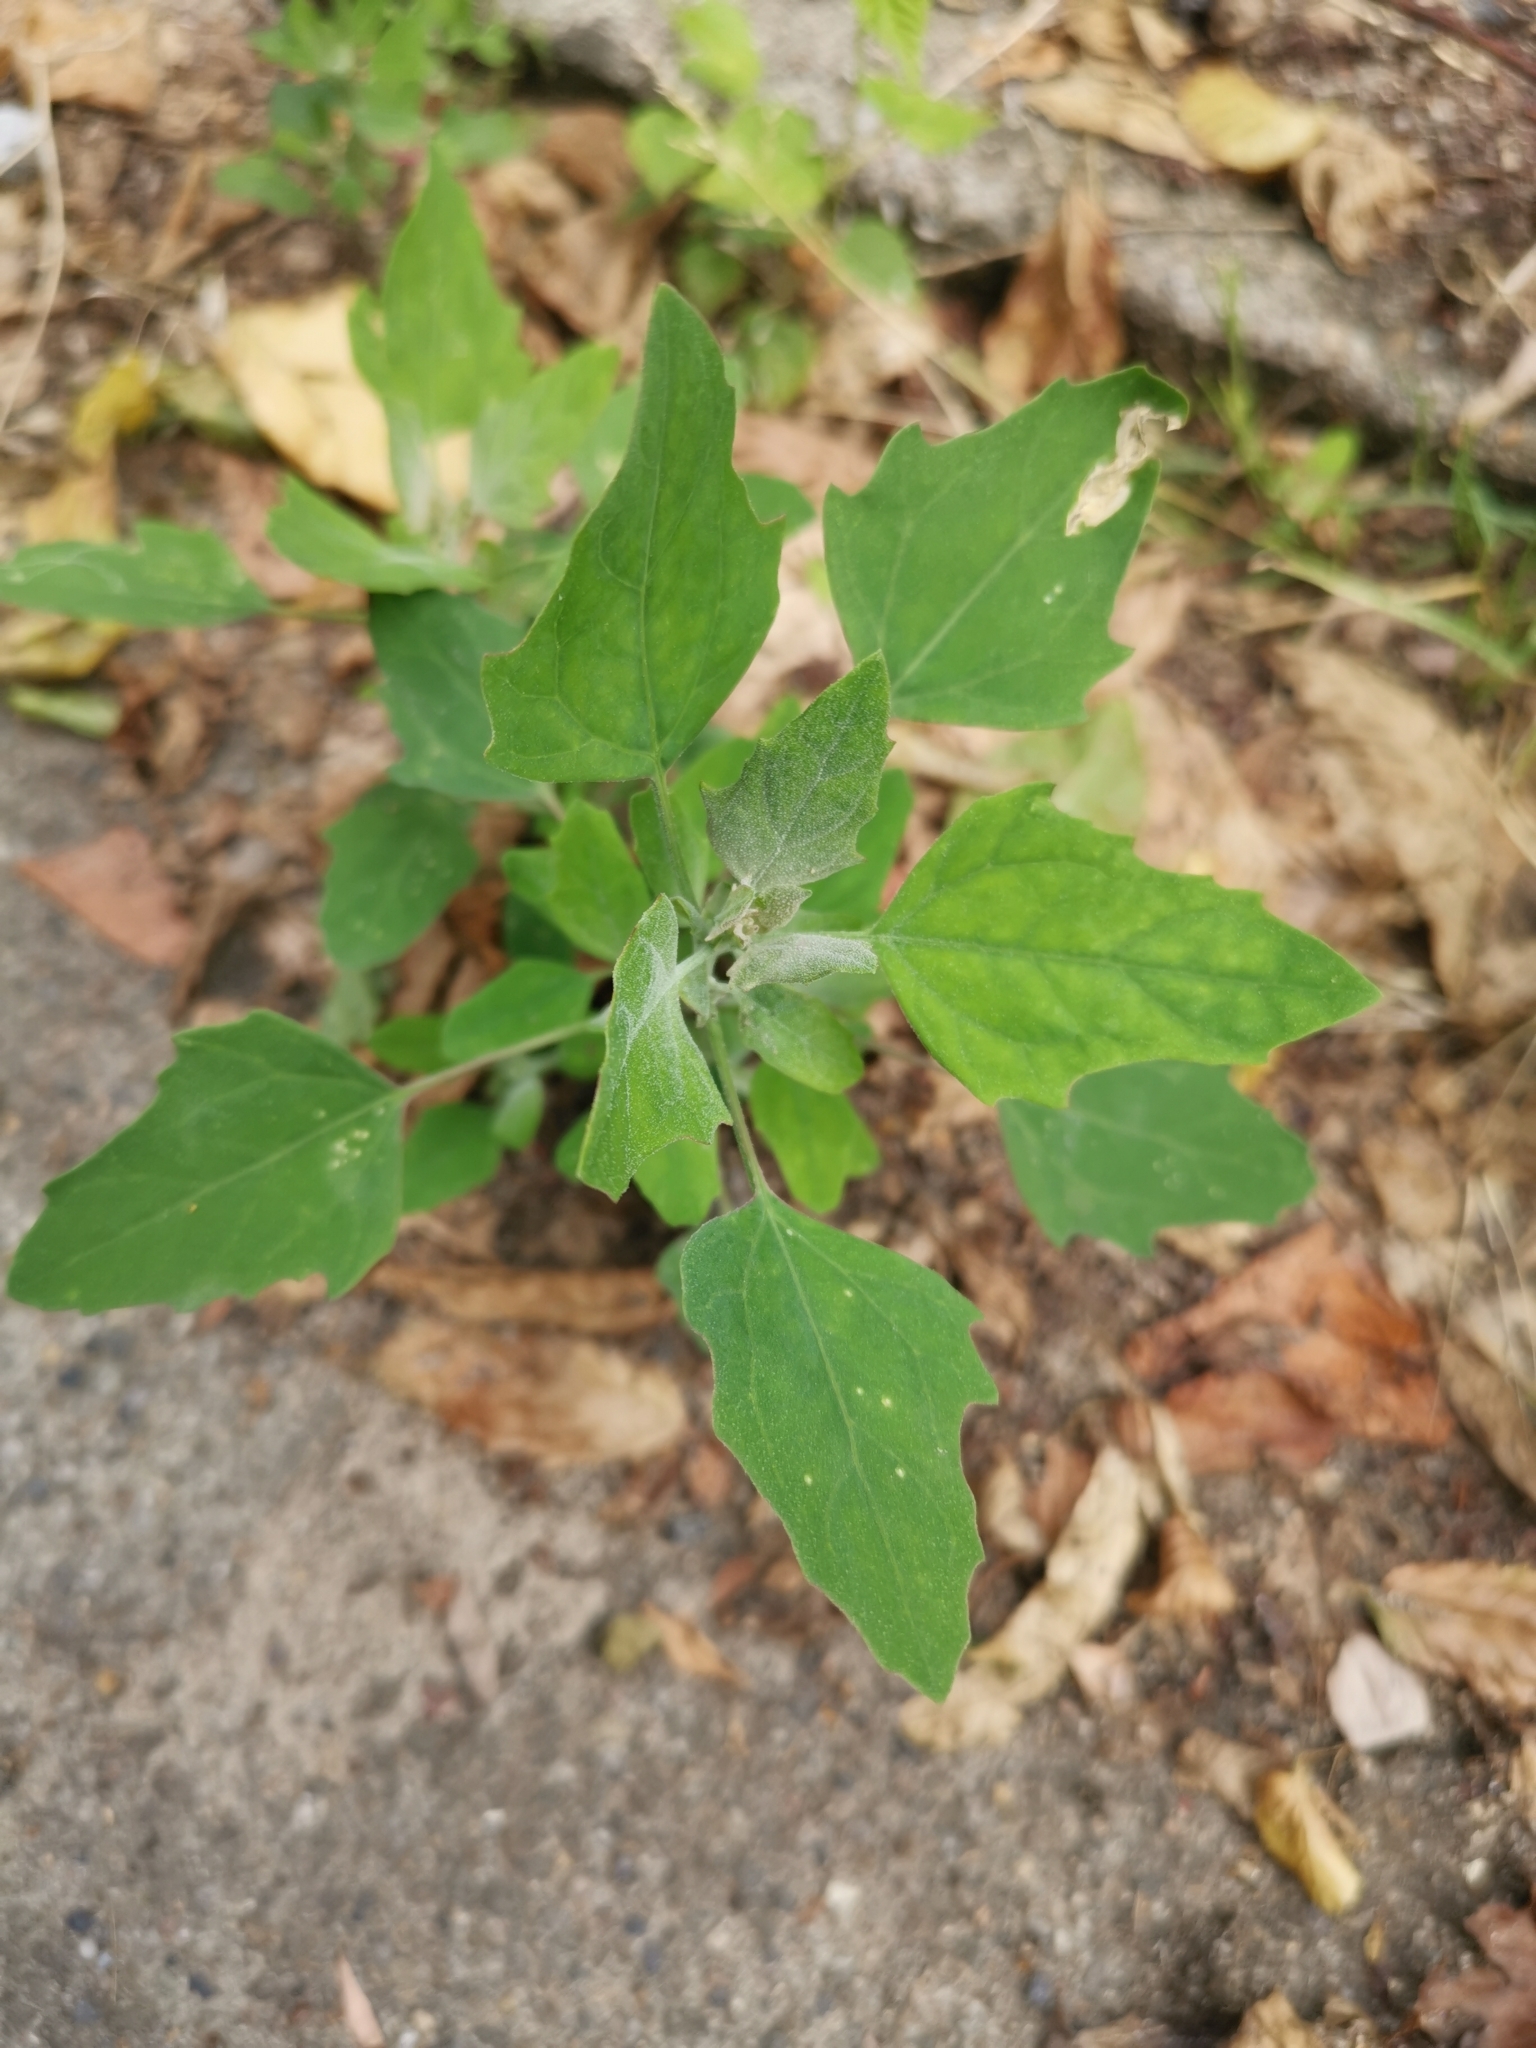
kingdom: Plantae
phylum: Tracheophyta
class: Magnoliopsida
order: Caryophyllales
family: Amaranthaceae
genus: Chenopodium
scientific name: Chenopodium album
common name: Fat-hen
